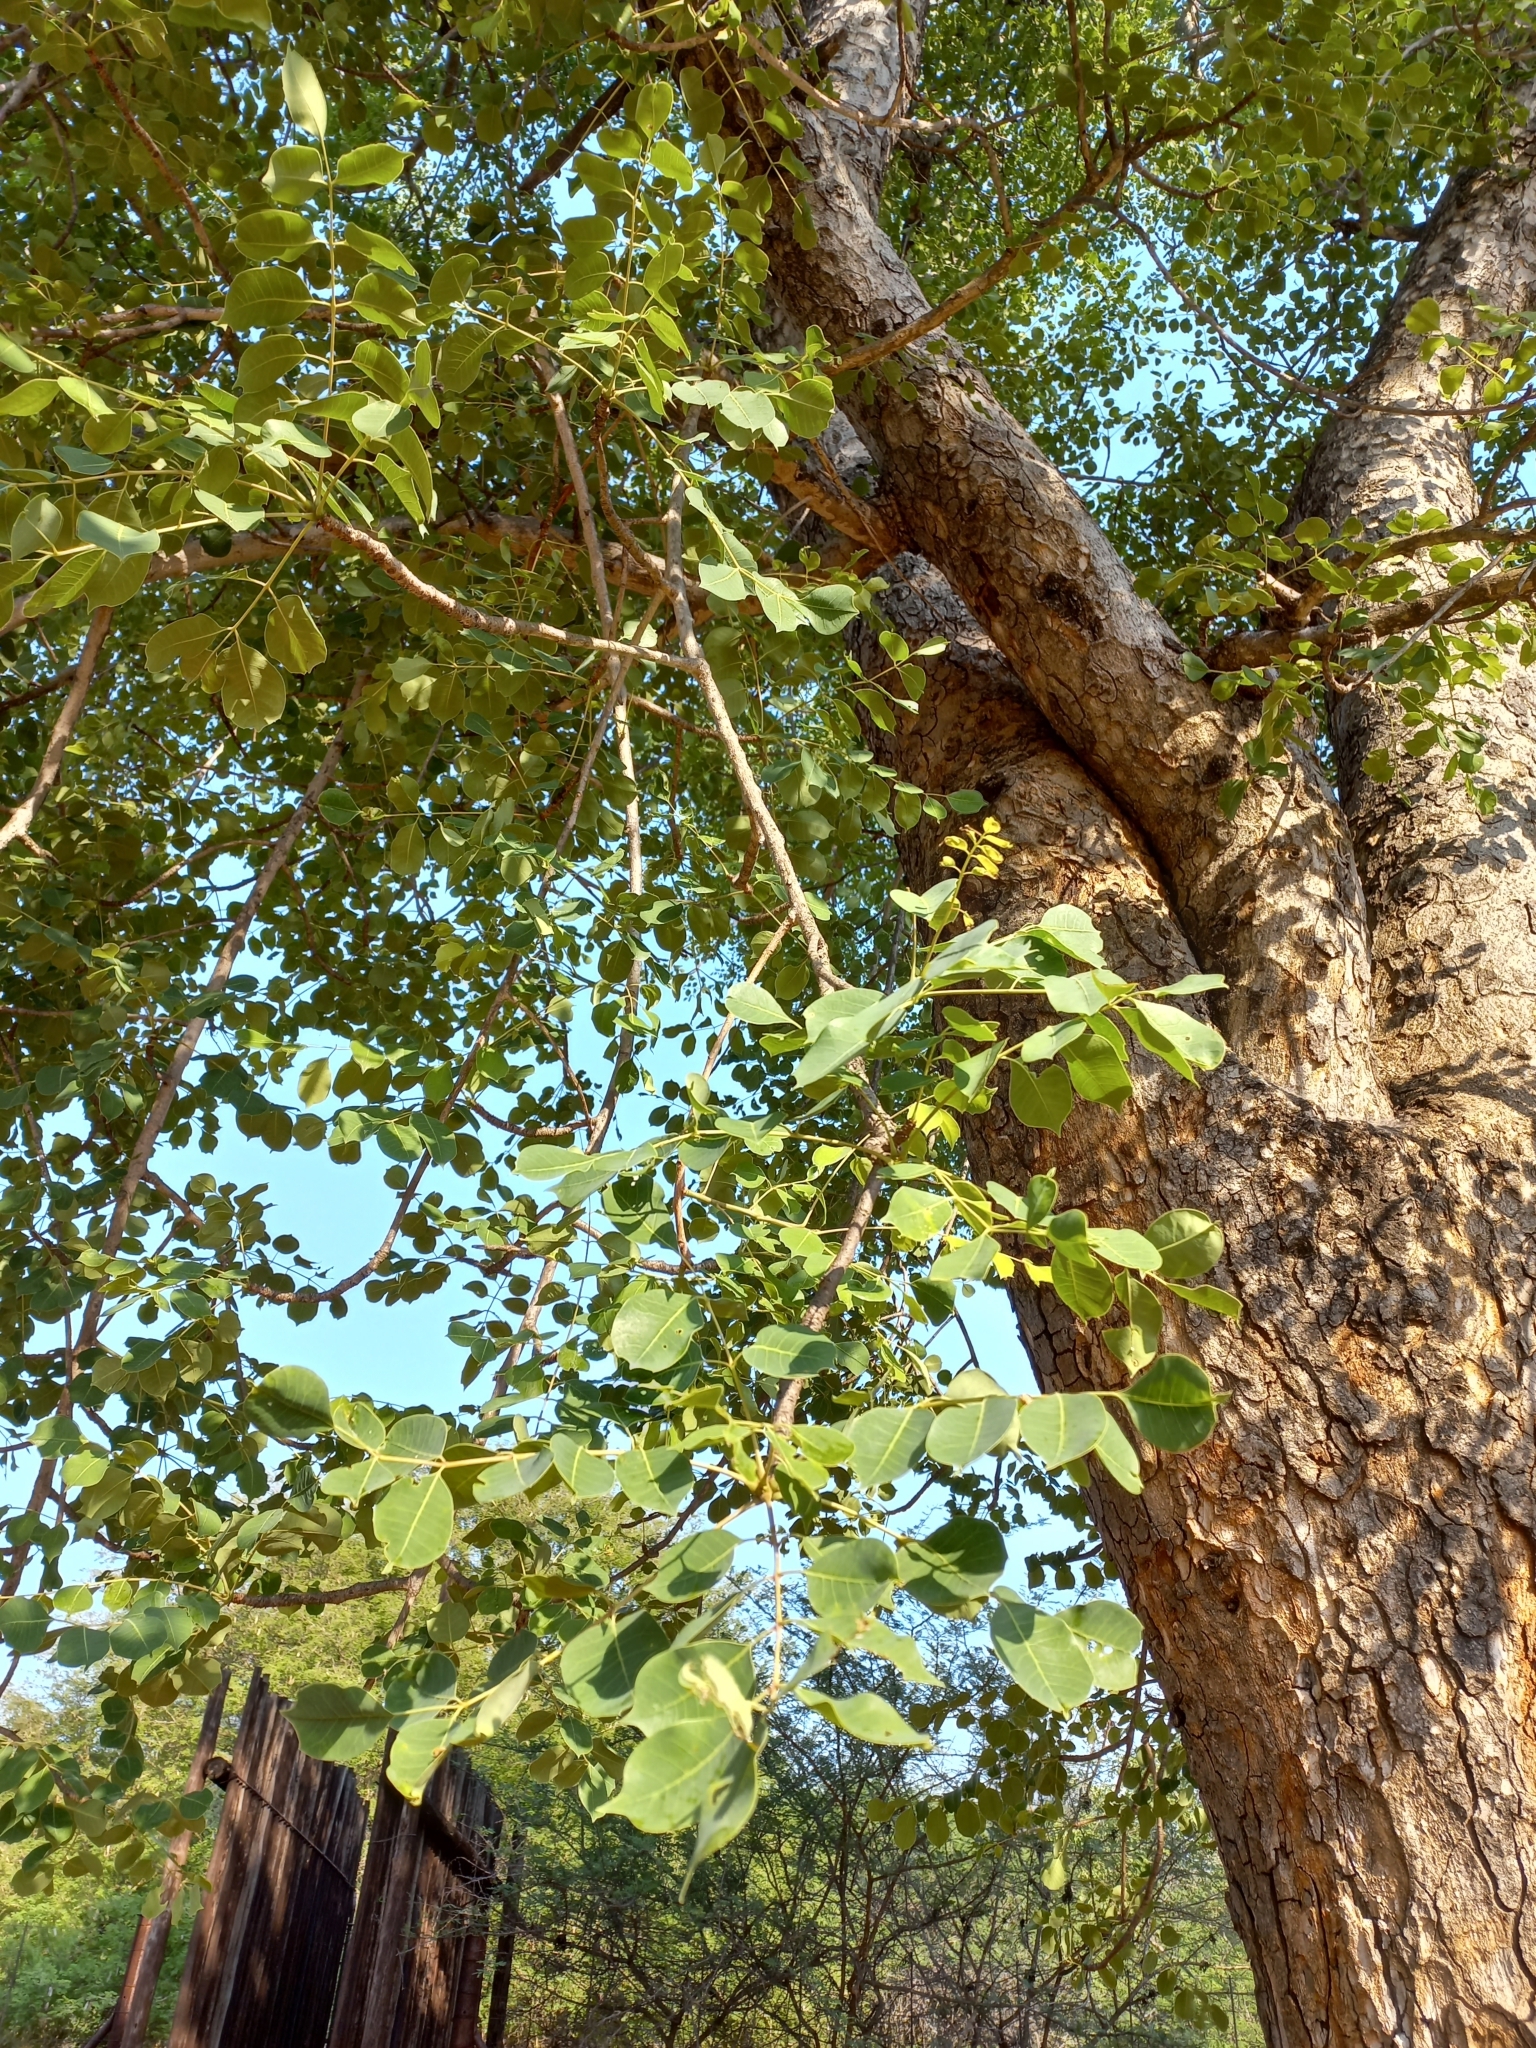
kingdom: Plantae
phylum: Tracheophyta
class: Magnoliopsida
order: Sapindales
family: Anacardiaceae
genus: Sclerocarya
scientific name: Sclerocarya birrea
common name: Marula
